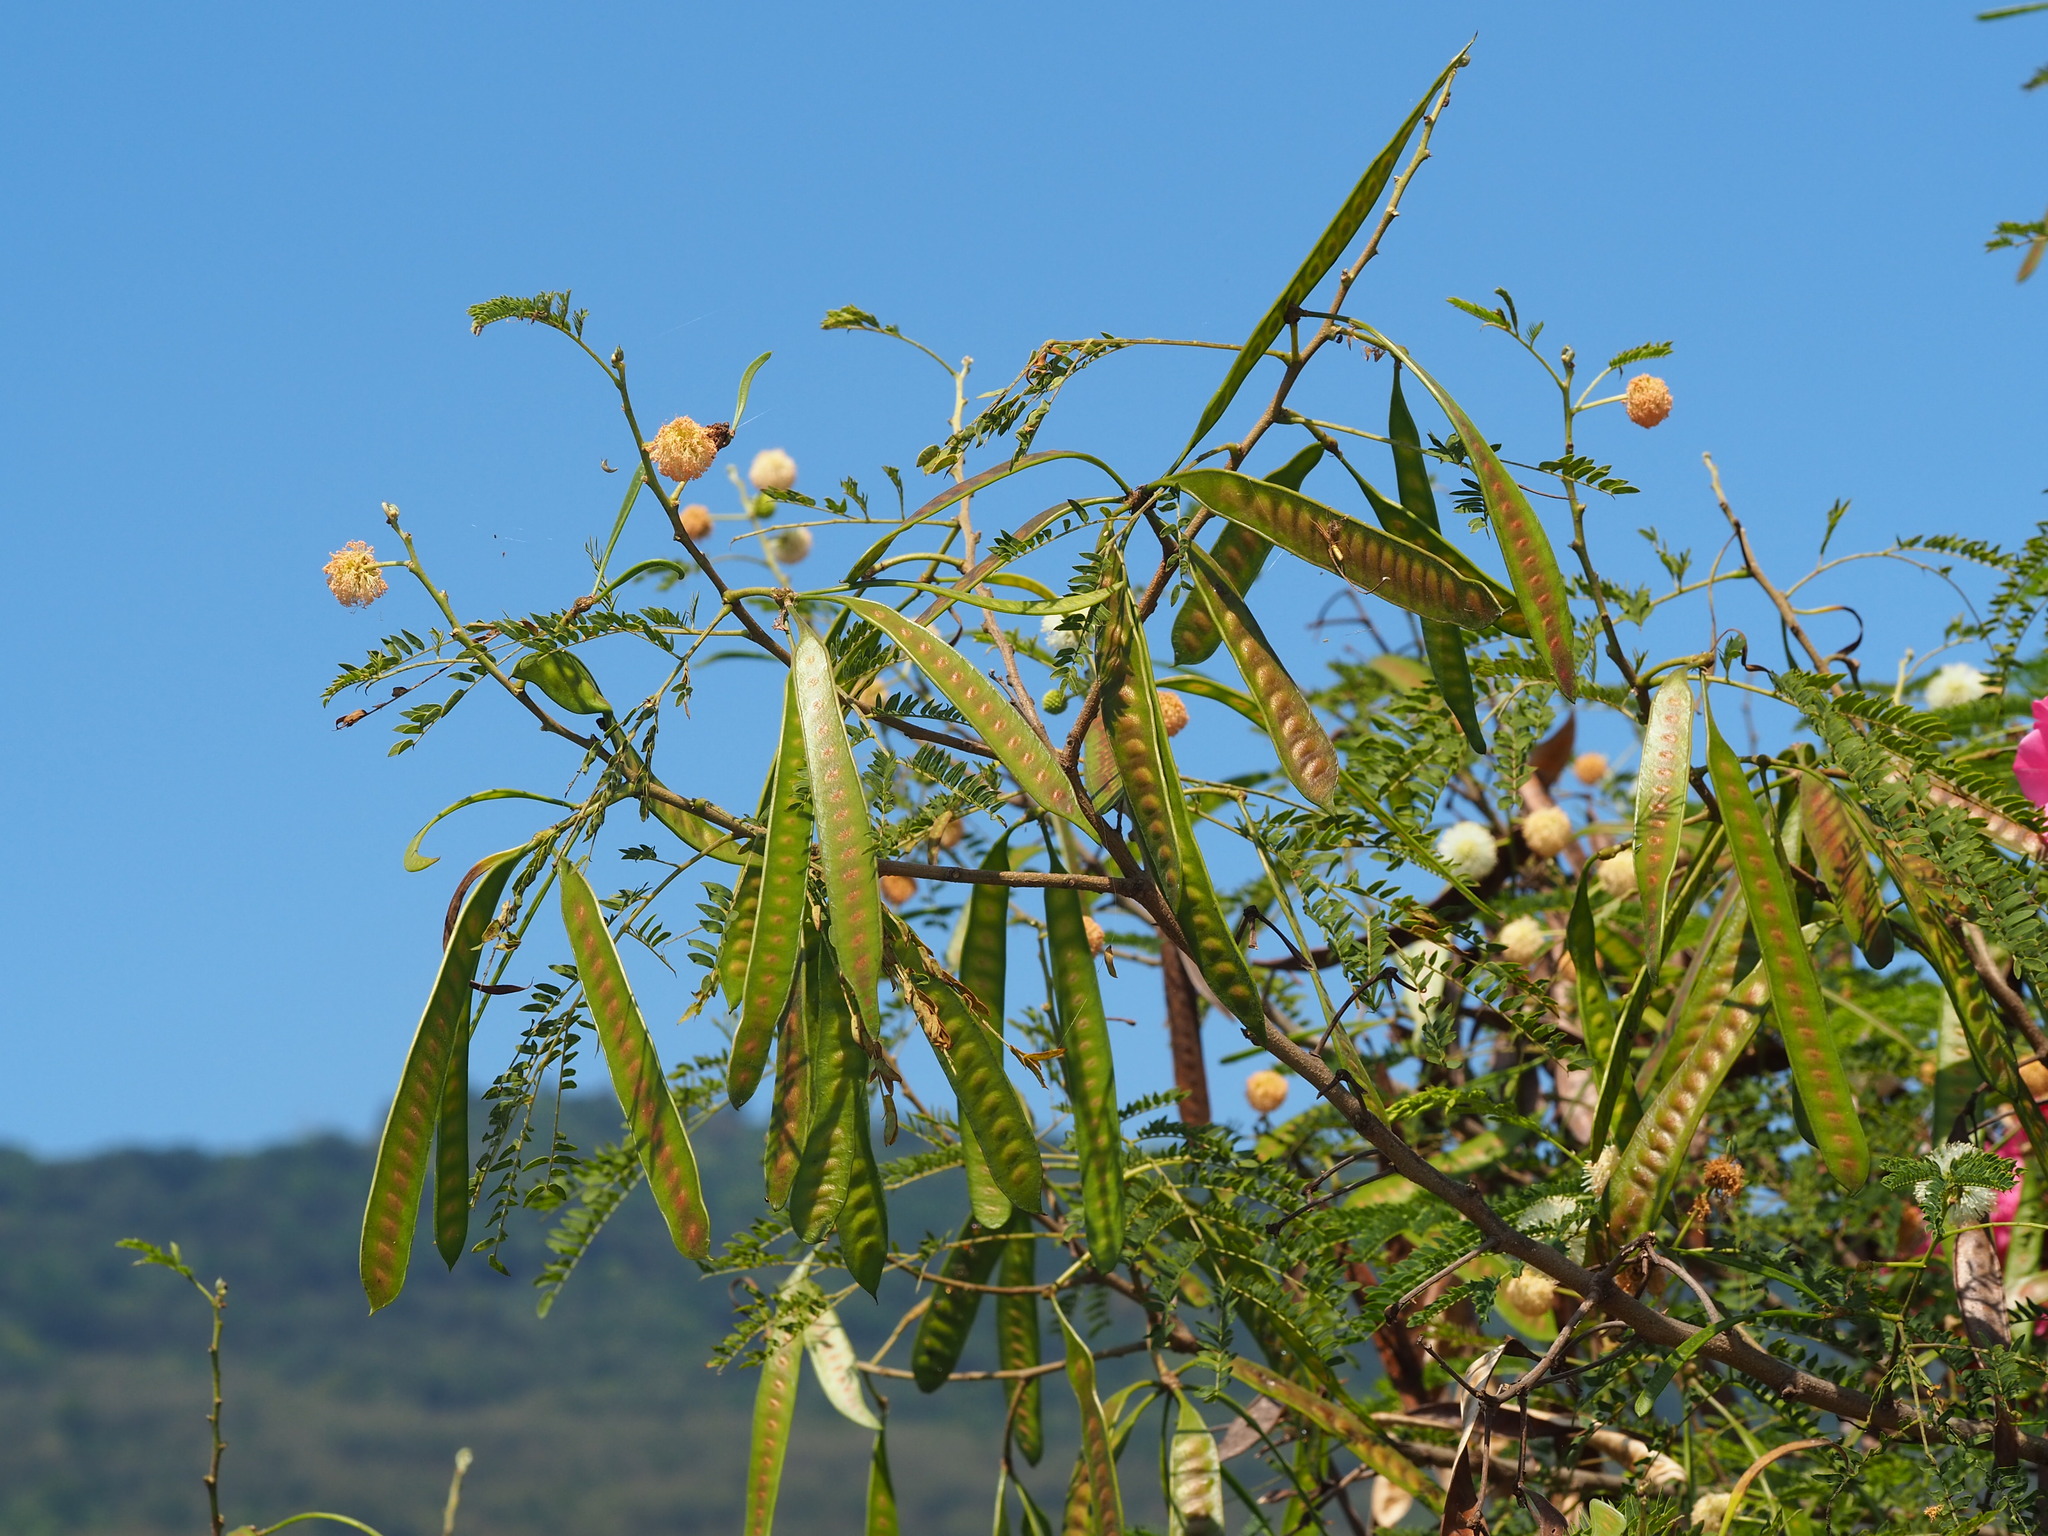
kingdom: Plantae
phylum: Tracheophyta
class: Magnoliopsida
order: Fabales
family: Fabaceae
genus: Leucaena
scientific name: Leucaena leucocephala
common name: White leadtree
